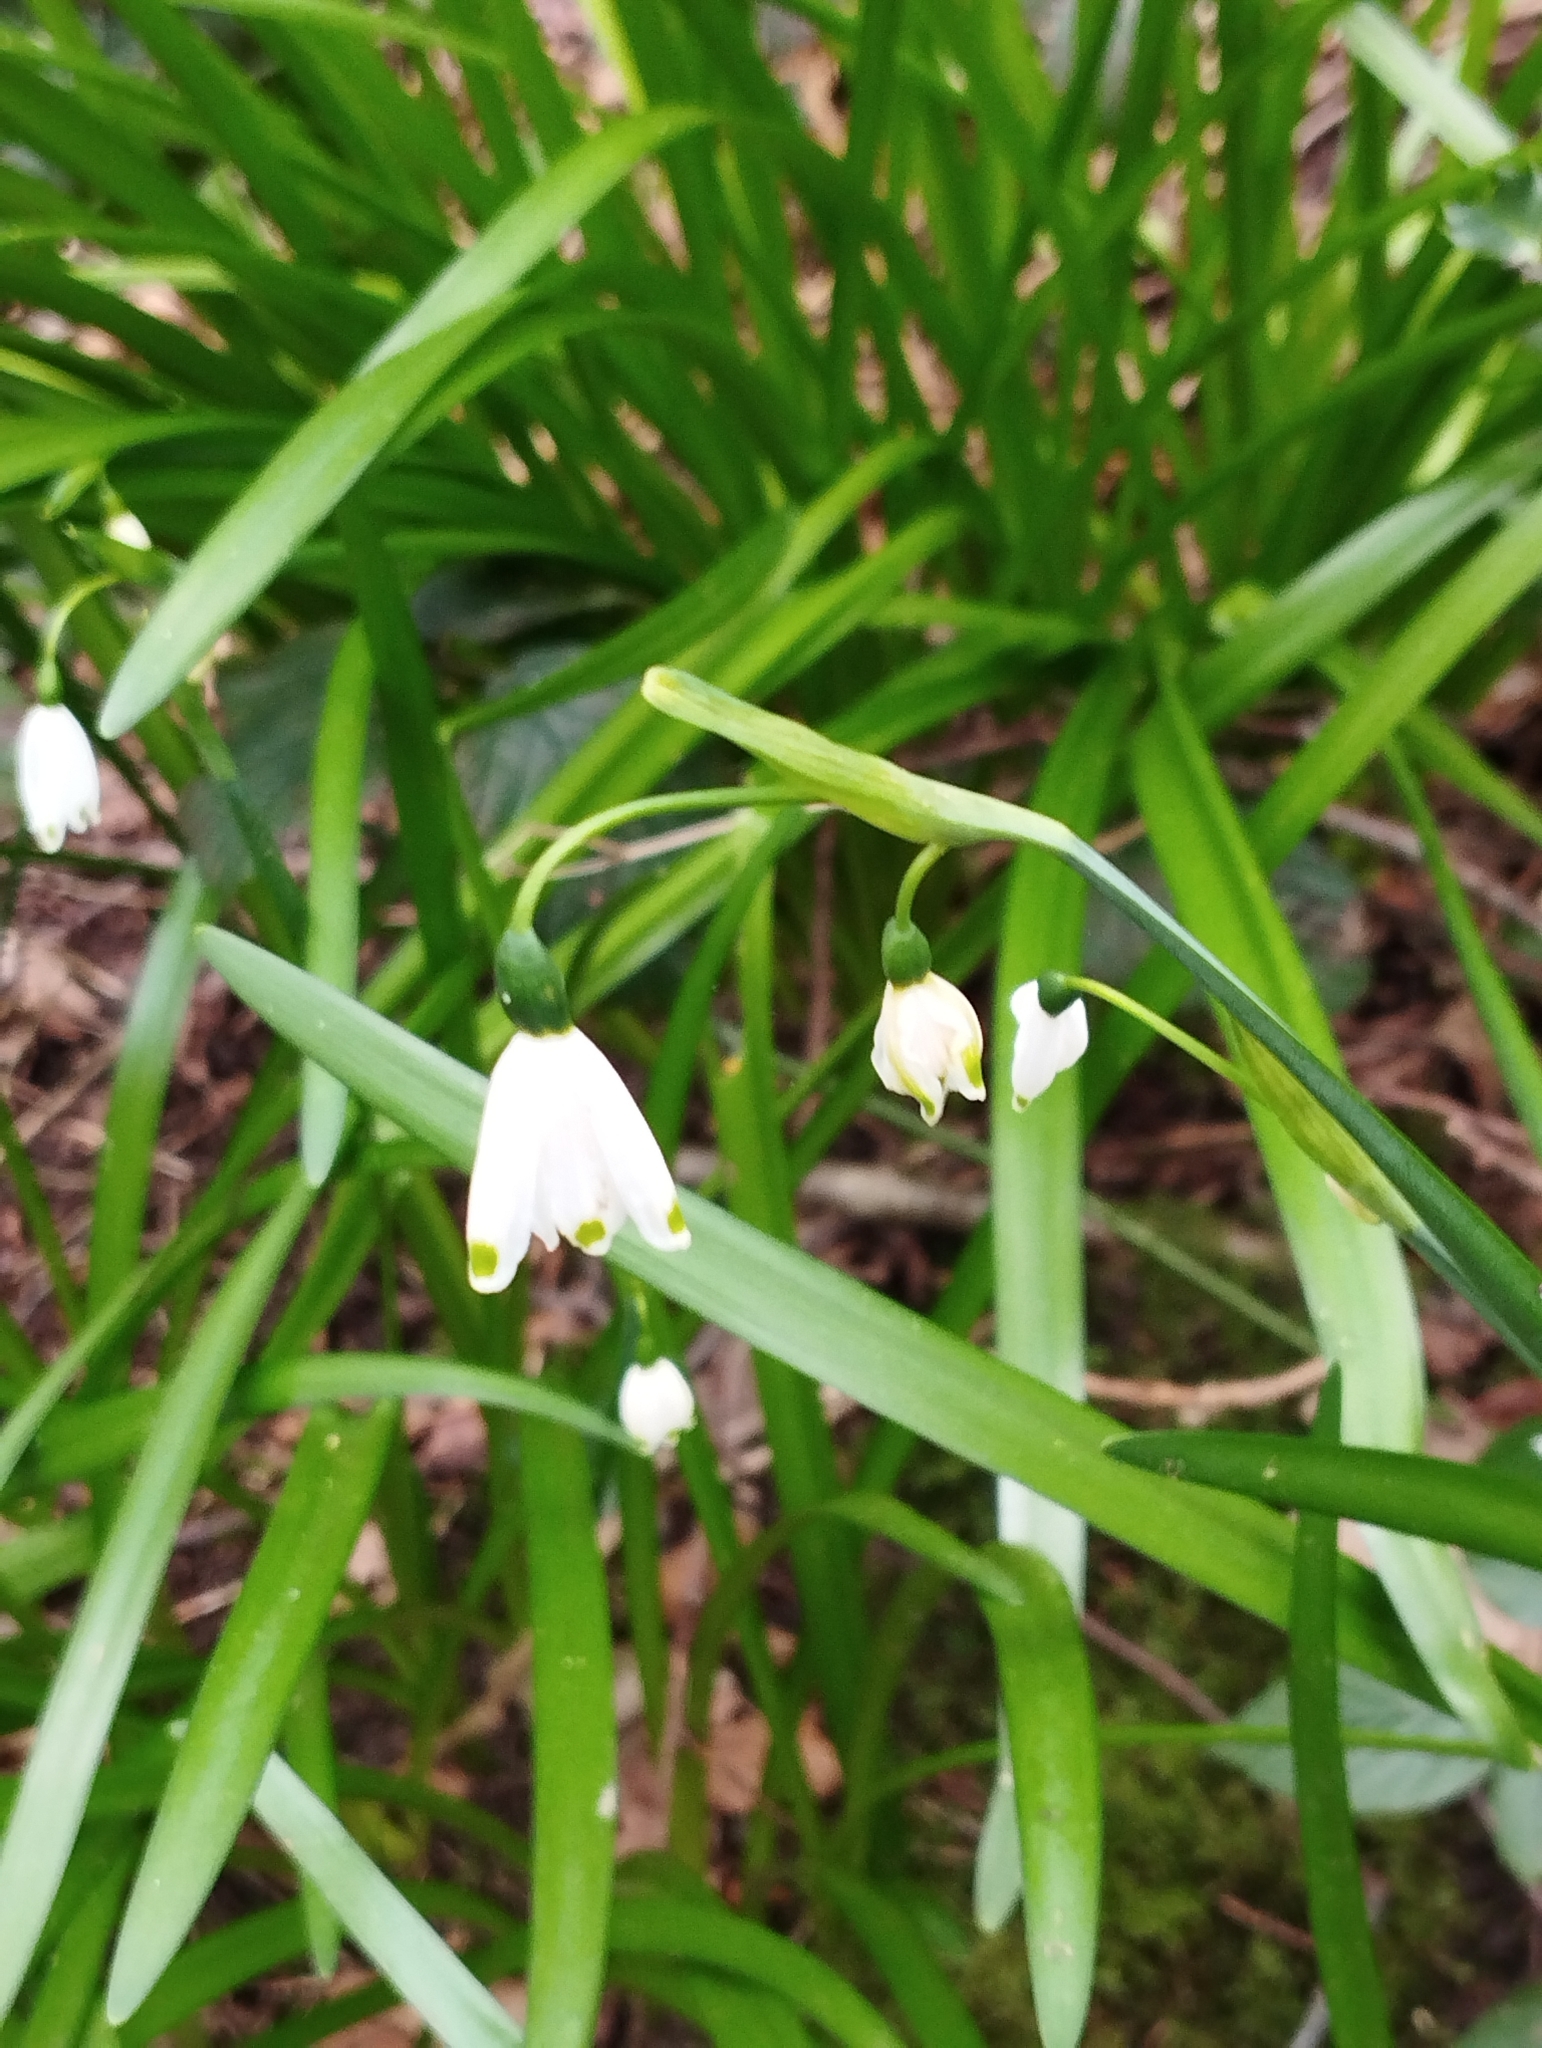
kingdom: Plantae
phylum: Tracheophyta
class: Liliopsida
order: Asparagales
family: Amaryllidaceae
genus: Leucojum
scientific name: Leucojum aestivum
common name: Summer snowflake
